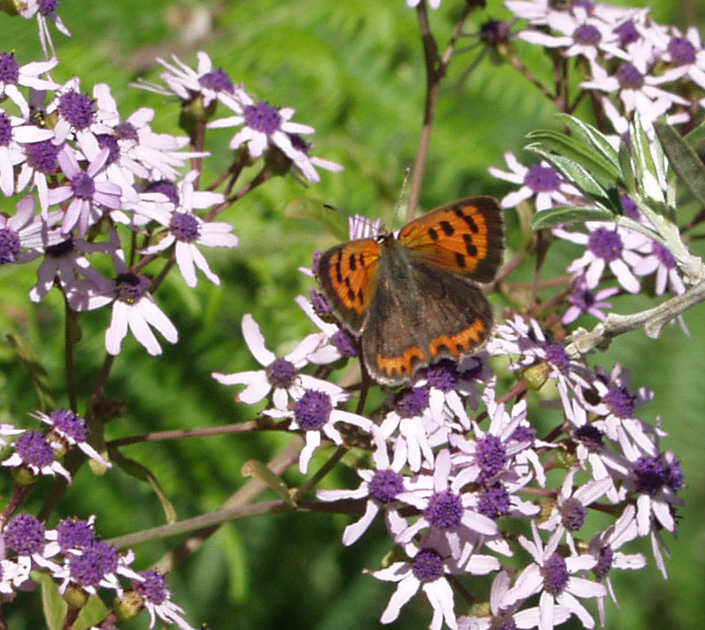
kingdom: Animalia
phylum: Arthropoda
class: Insecta
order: Lepidoptera
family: Lycaenidae
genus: Lycaena
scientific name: Lycaena phlaeas
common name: Small copper
